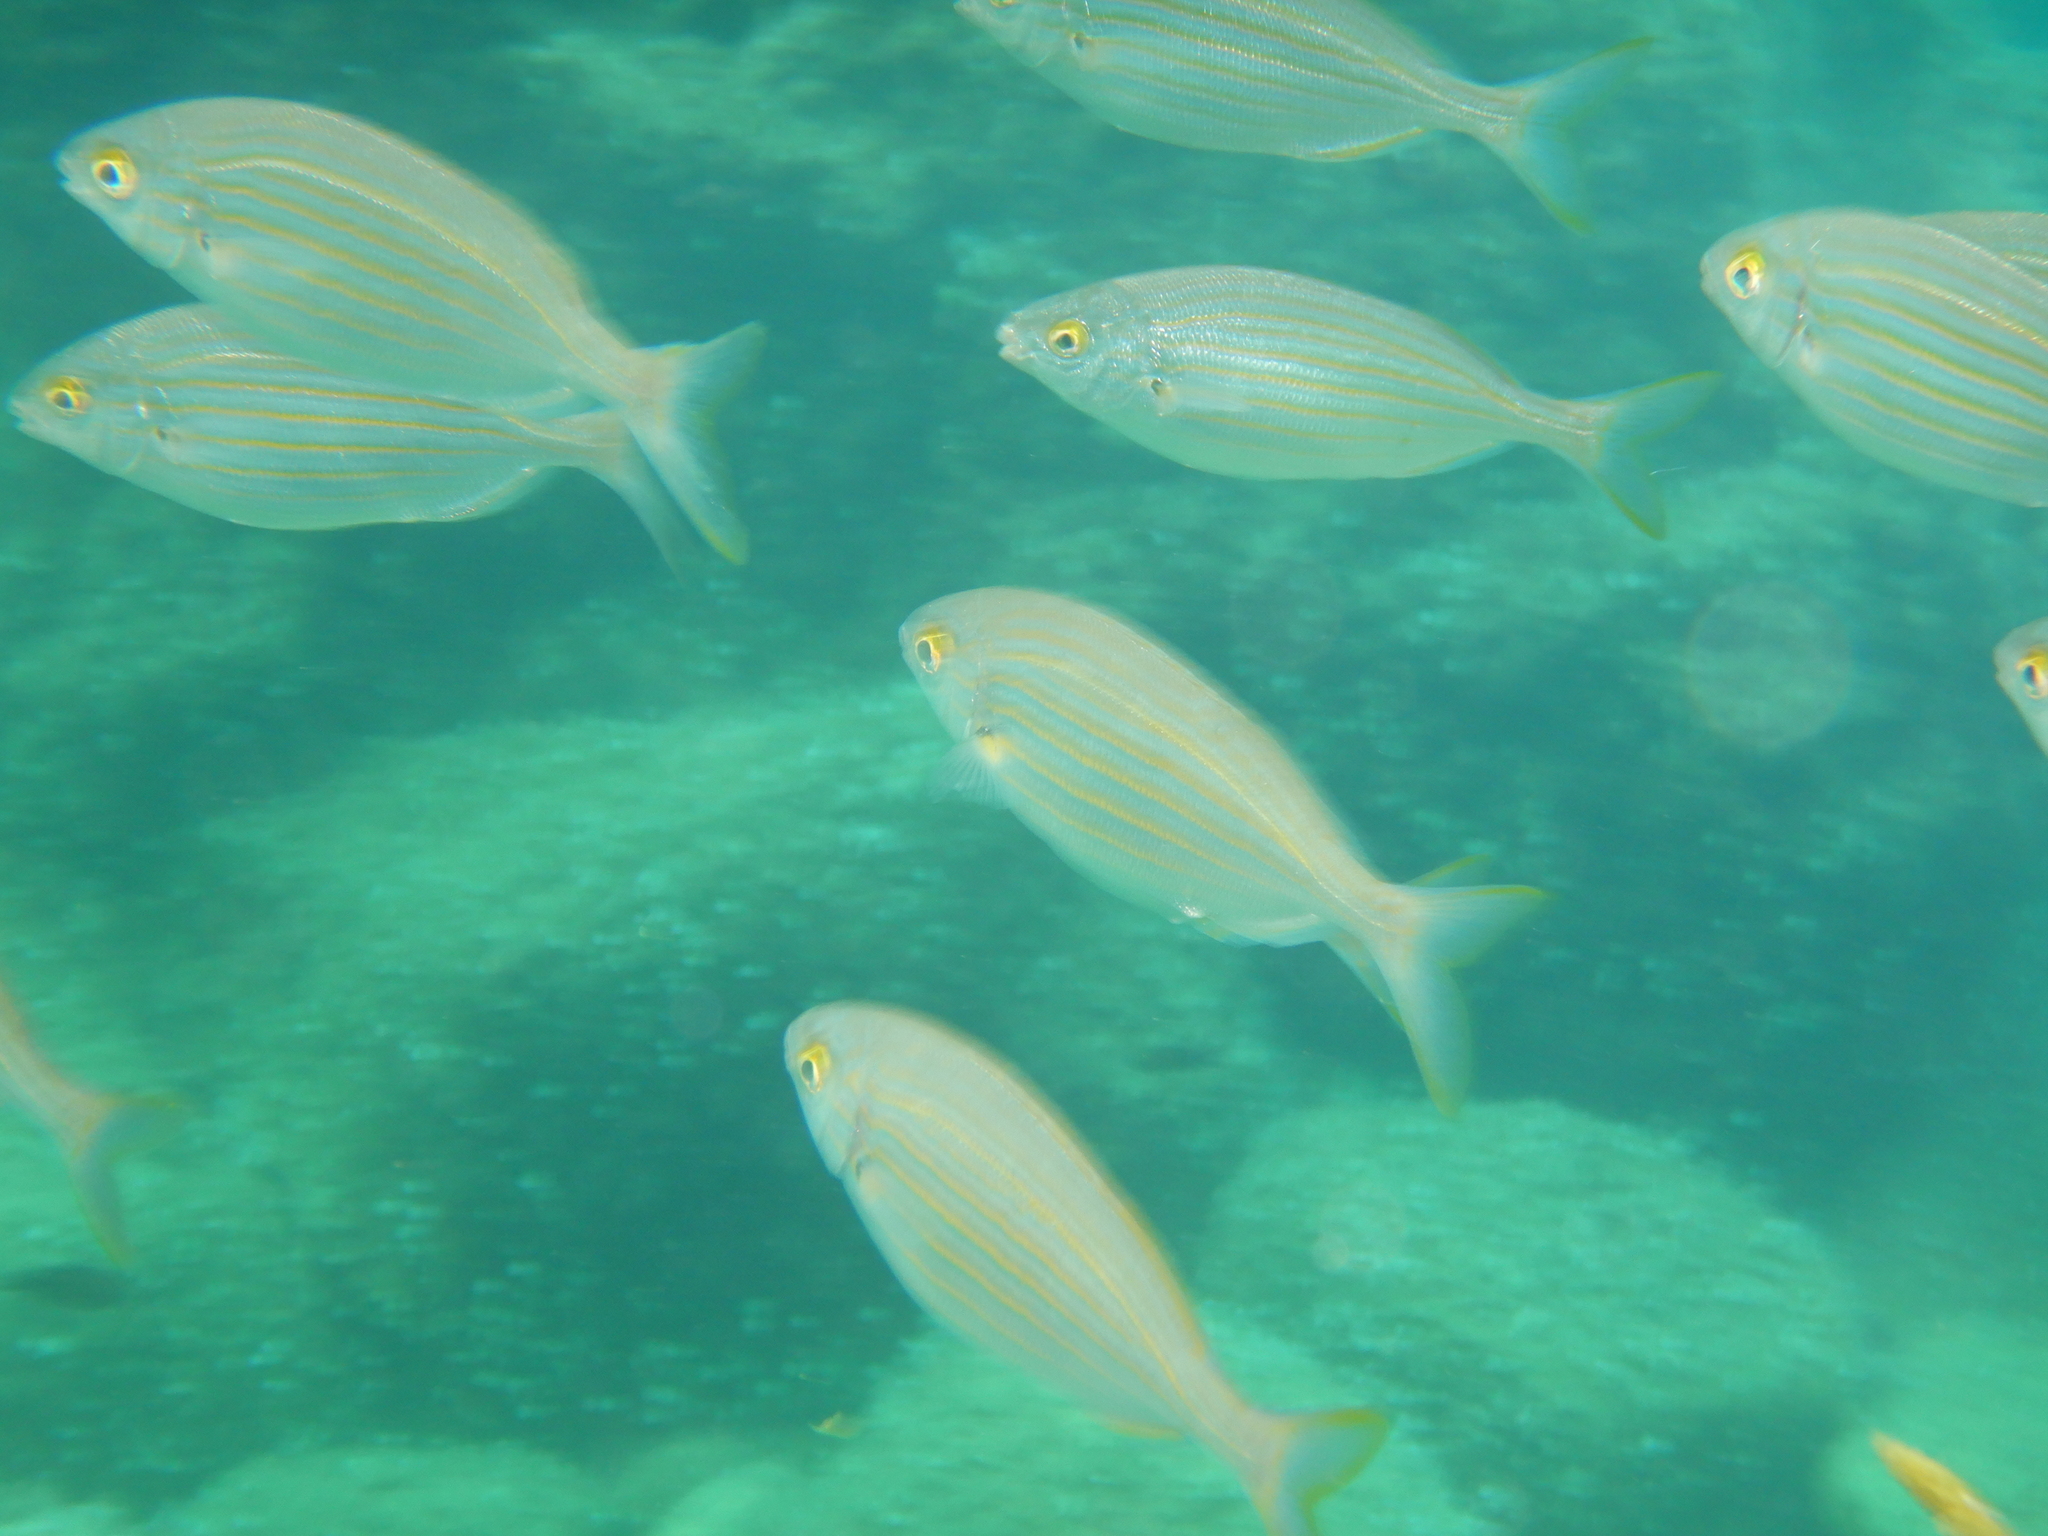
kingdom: Animalia
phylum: Chordata
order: Perciformes
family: Sparidae
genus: Sarpa
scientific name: Sarpa salpa
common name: Salema
